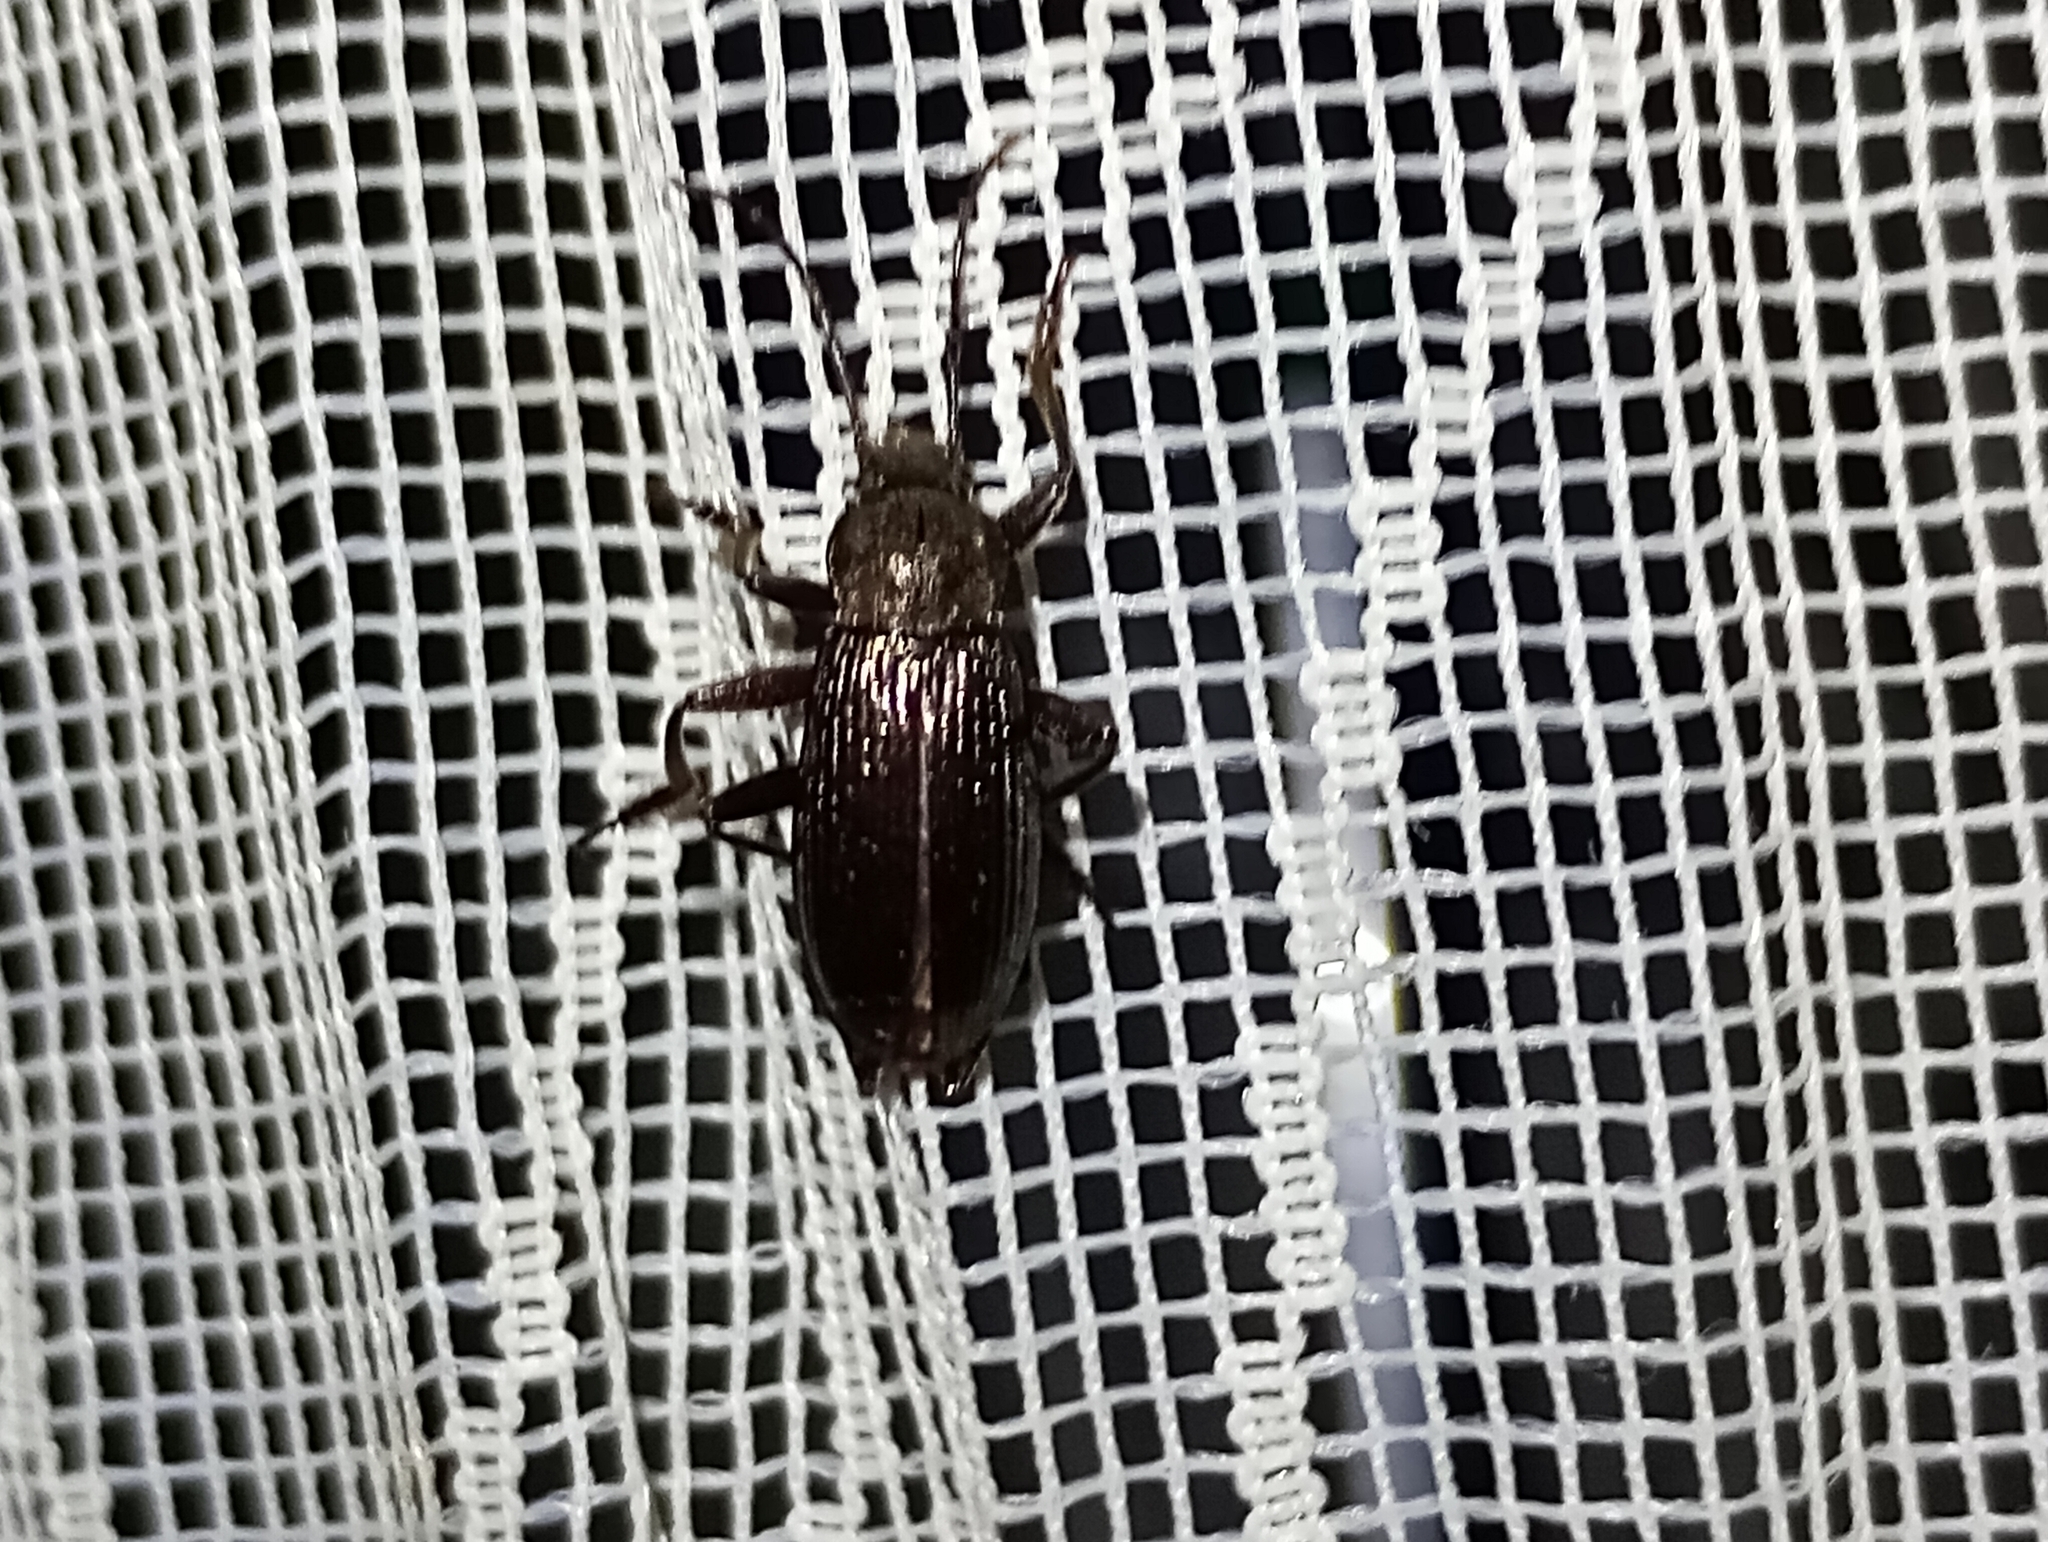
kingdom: Animalia
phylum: Arthropoda
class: Insecta
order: Coleoptera
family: Tenebrionidae
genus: Stenomax
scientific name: Stenomax aeneus
